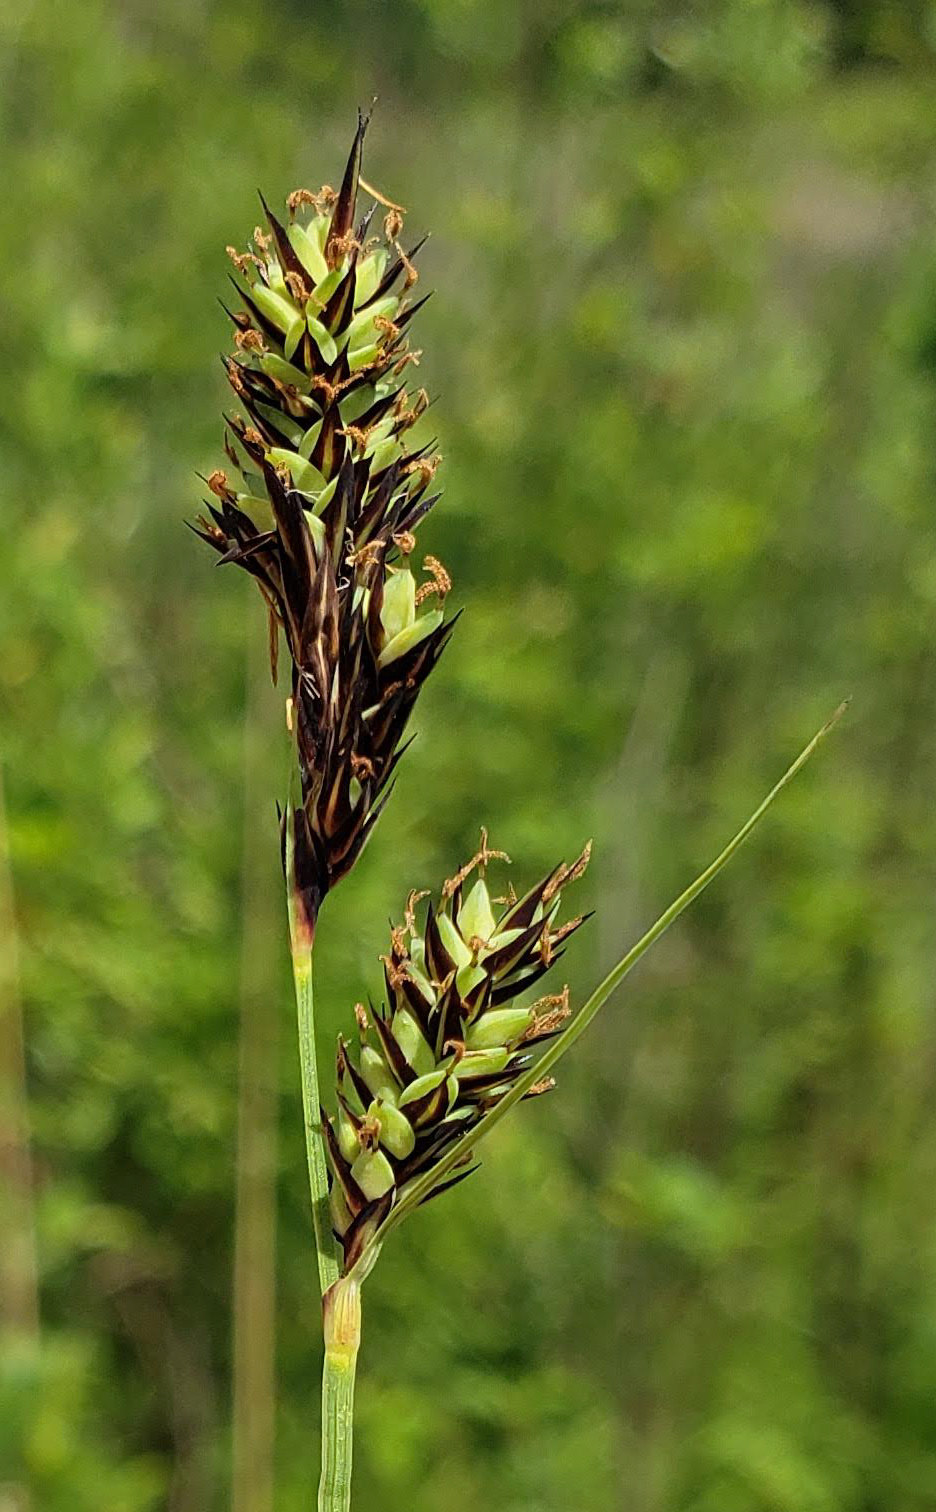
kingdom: Plantae
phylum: Tracheophyta
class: Liliopsida
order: Poales
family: Cyperaceae
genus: Carex
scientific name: Carex buxbaumii
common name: Club sedge
